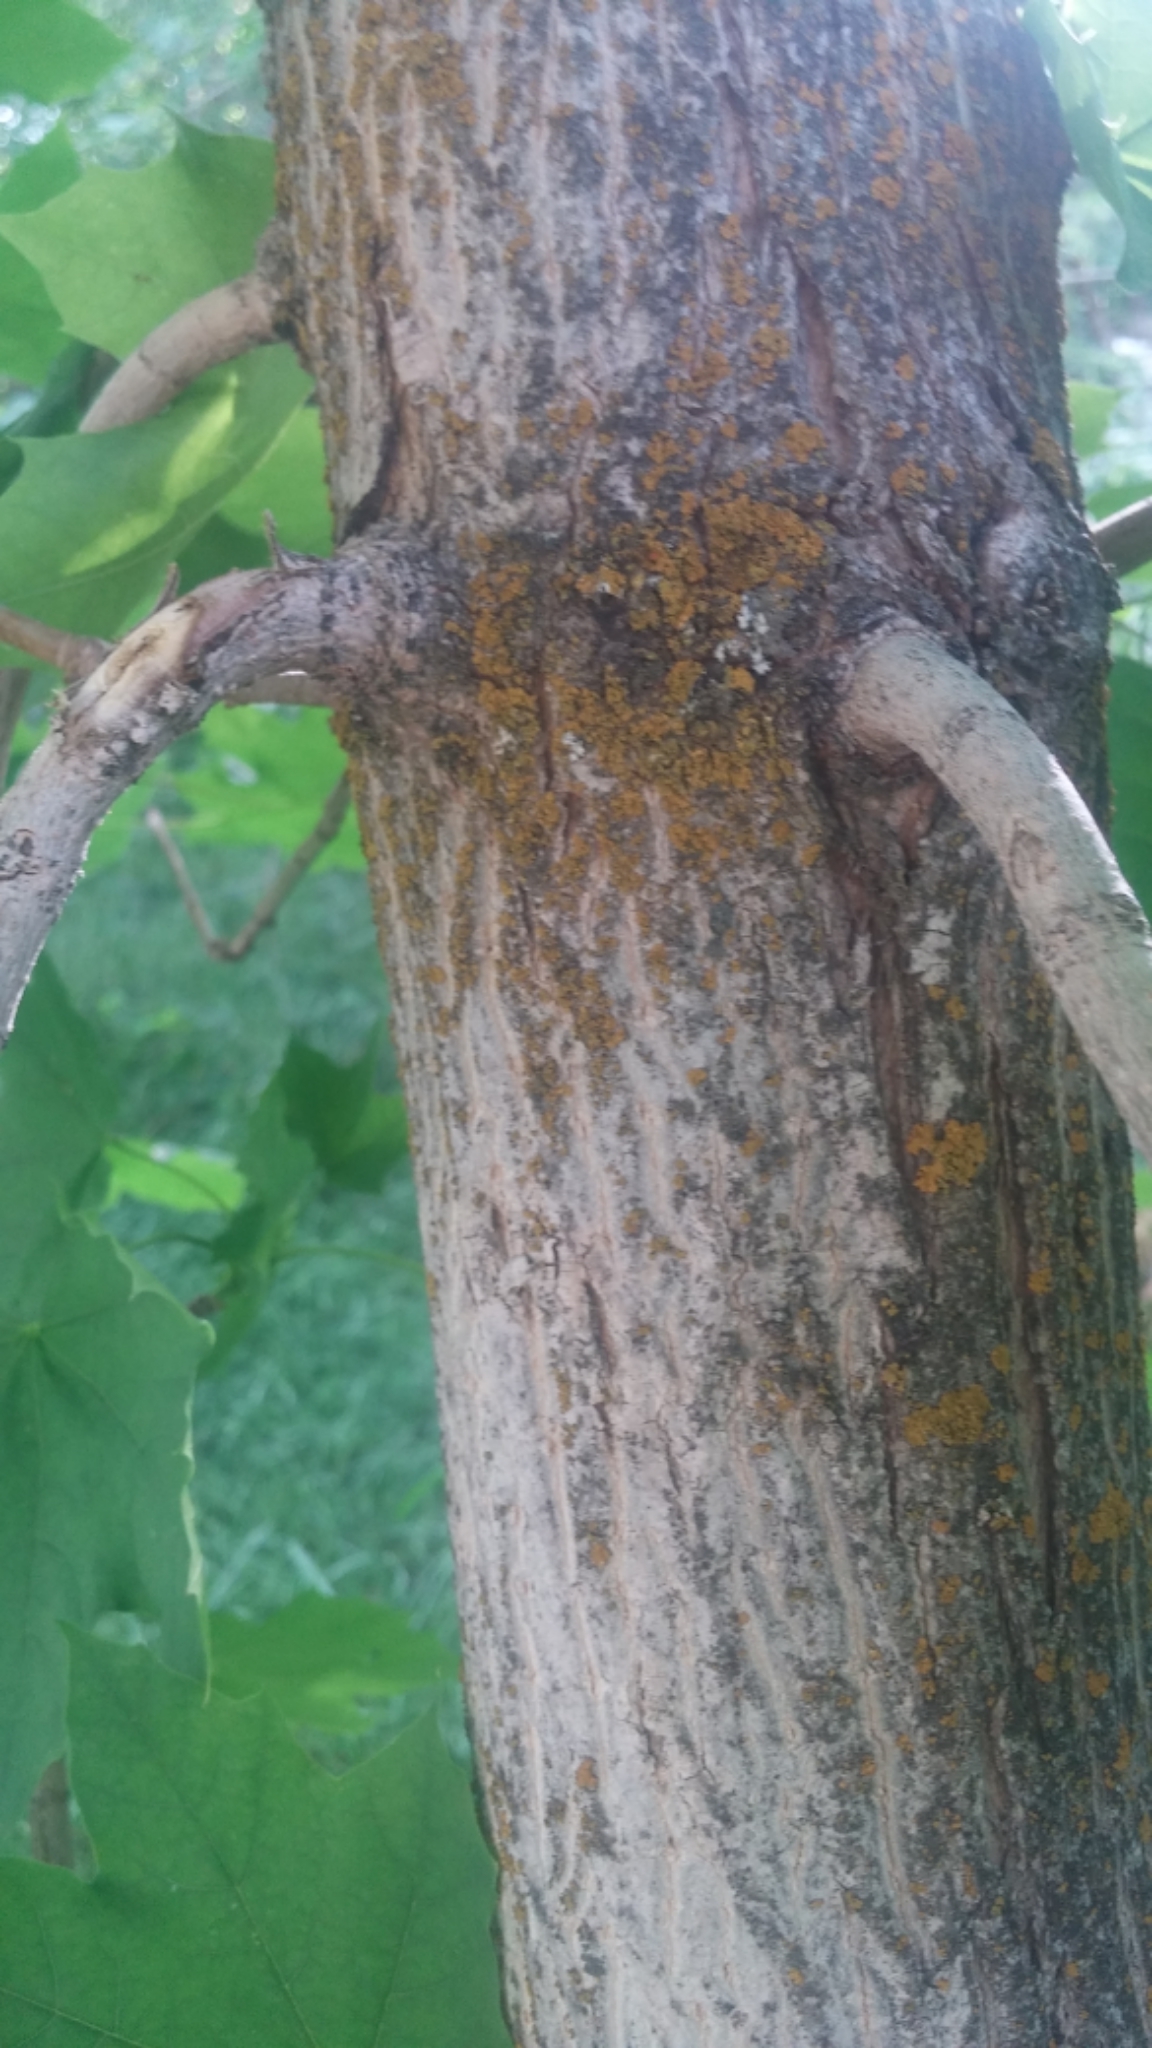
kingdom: Plantae
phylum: Tracheophyta
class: Magnoliopsida
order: Sapindales
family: Sapindaceae
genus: Acer
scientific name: Acer platanoides
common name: Norway maple
